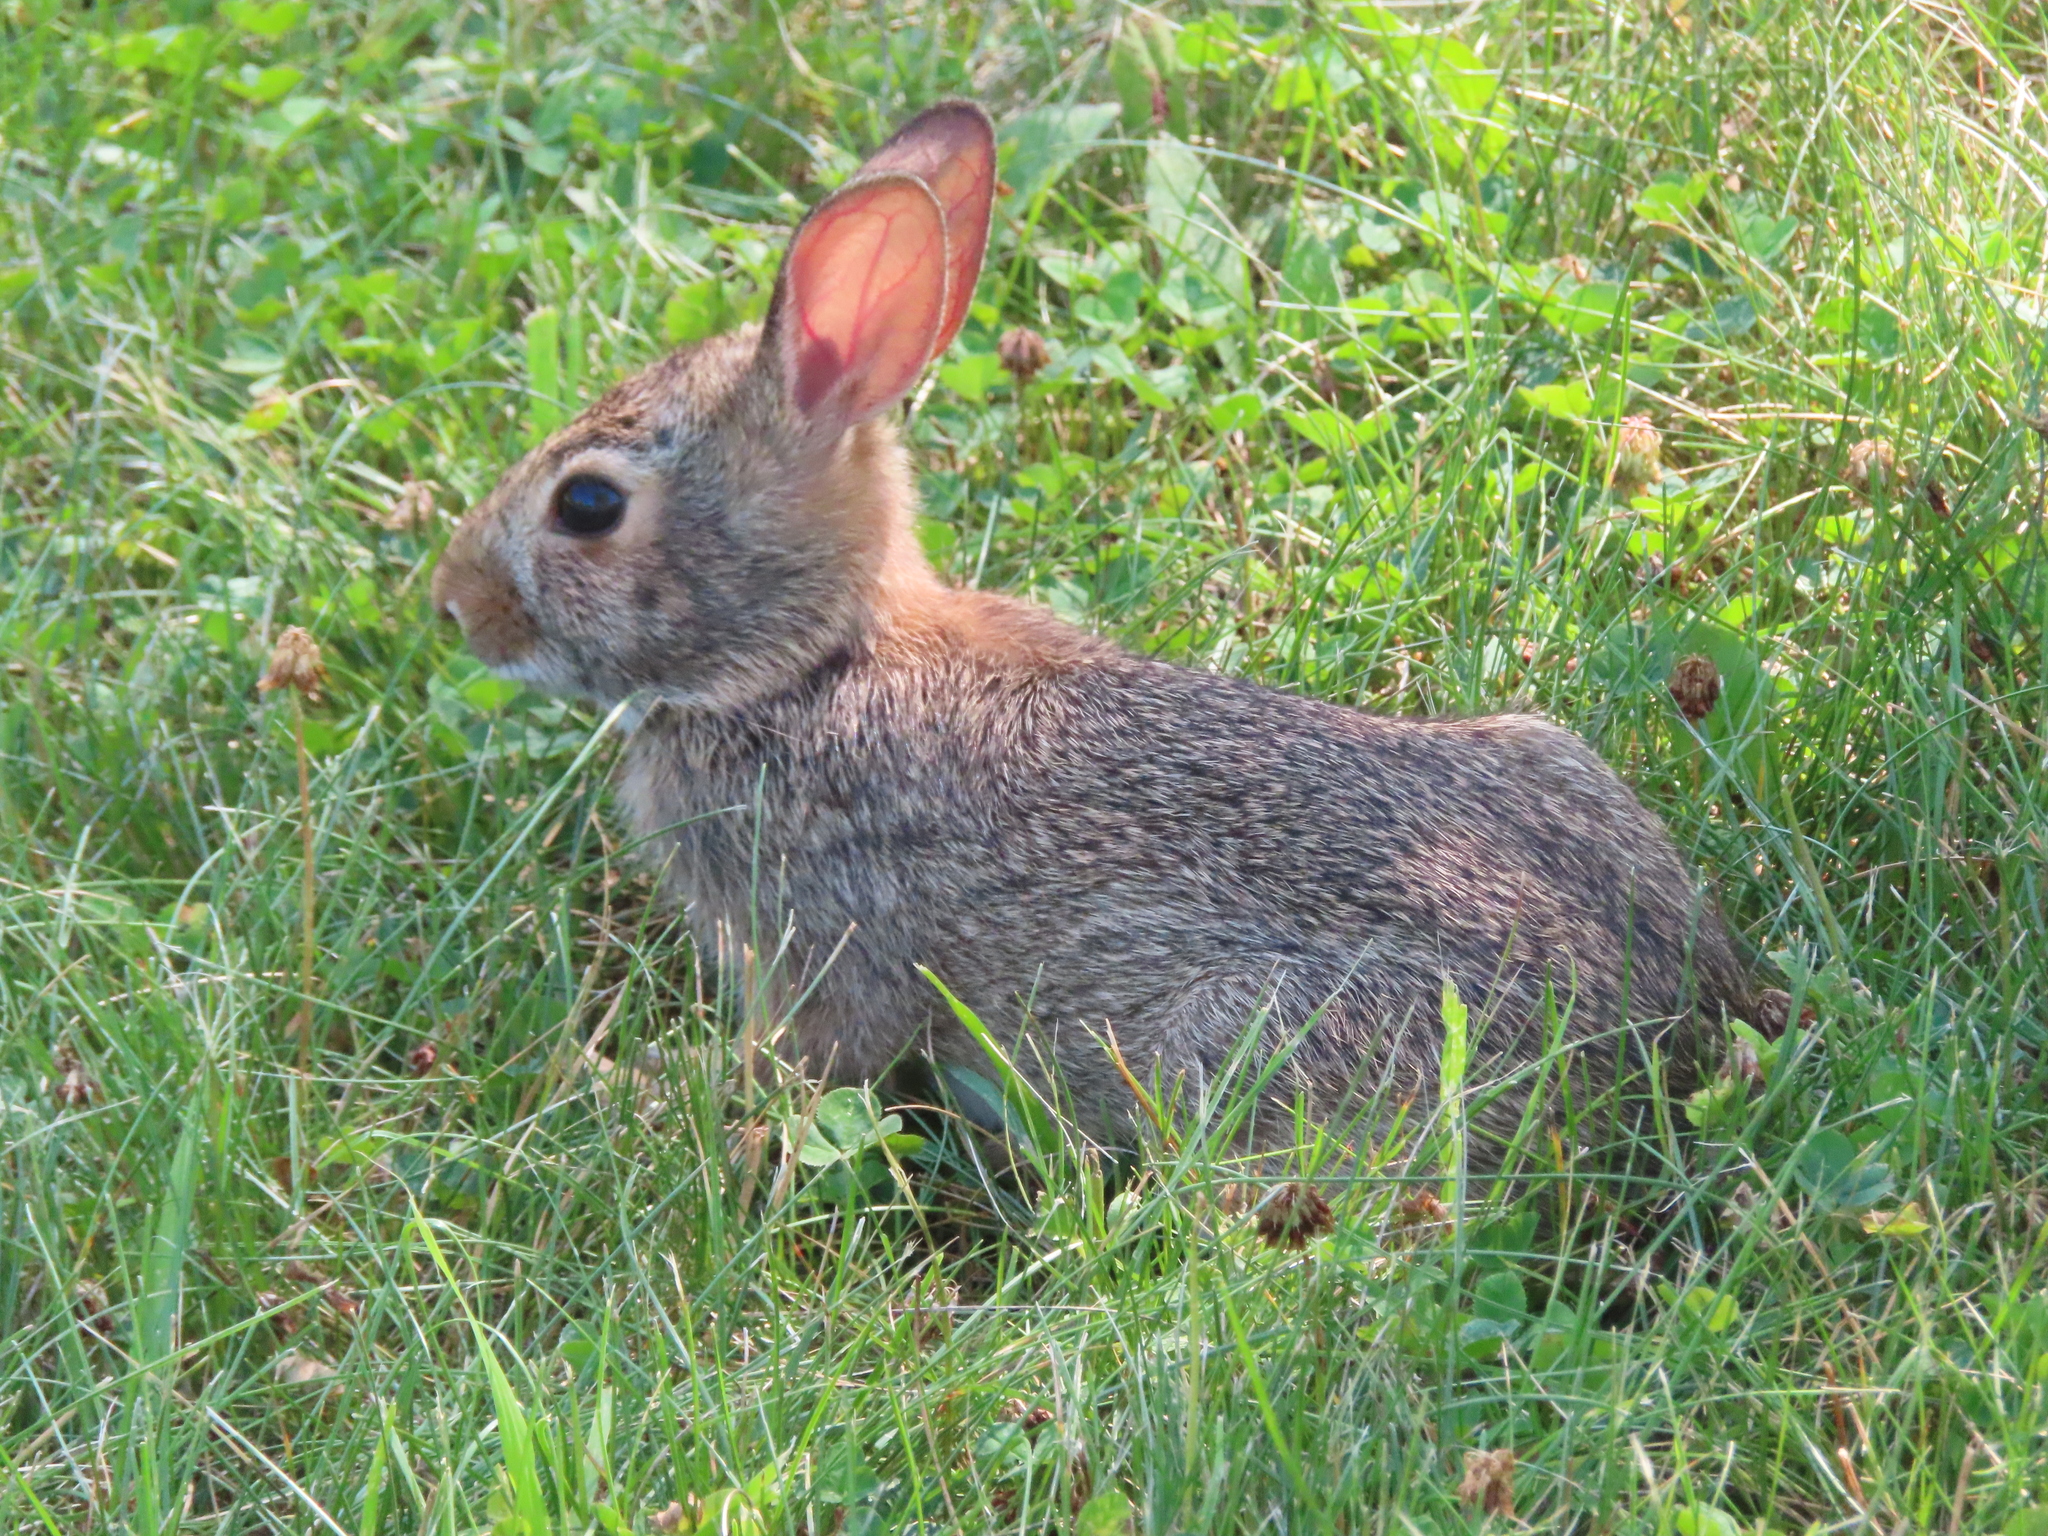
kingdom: Animalia
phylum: Chordata
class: Mammalia
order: Lagomorpha
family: Leporidae
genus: Sylvilagus
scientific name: Sylvilagus floridanus
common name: Eastern cottontail
